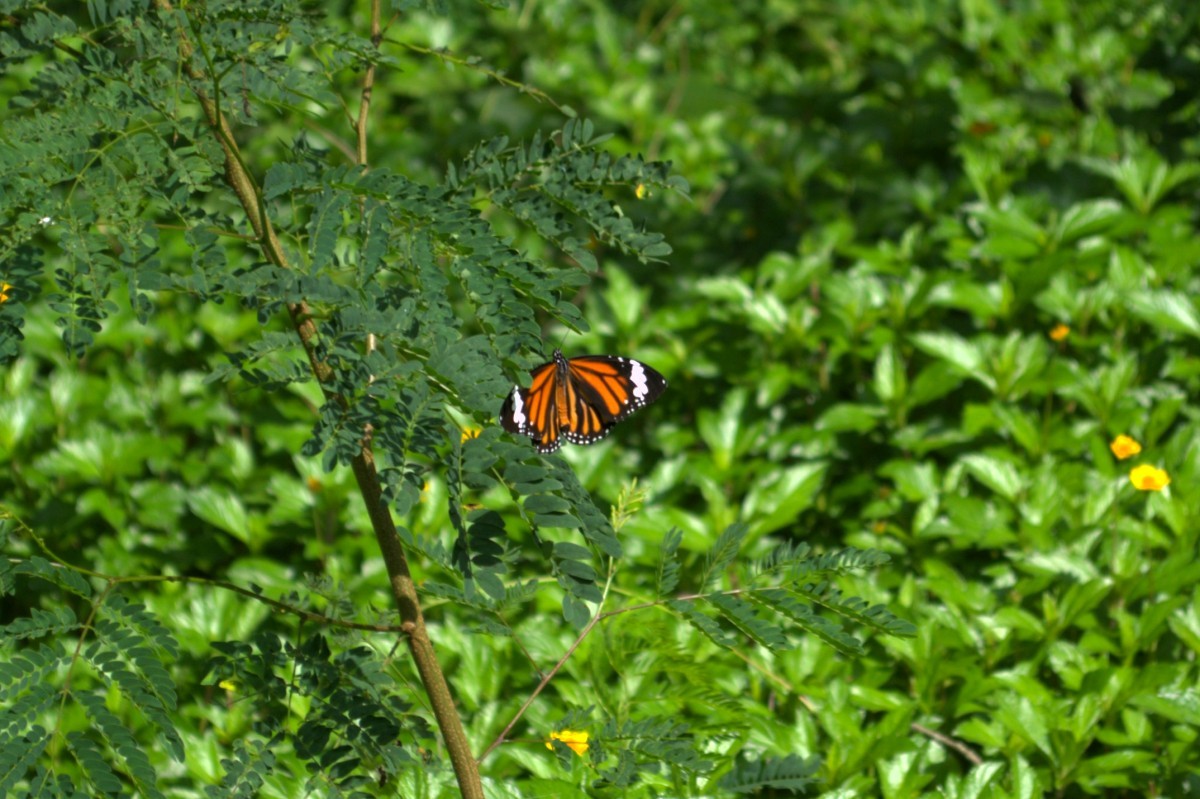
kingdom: Animalia
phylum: Arthropoda
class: Insecta
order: Lepidoptera
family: Nymphalidae
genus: Danaus
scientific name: Danaus genutia
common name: Common tiger butterfly
